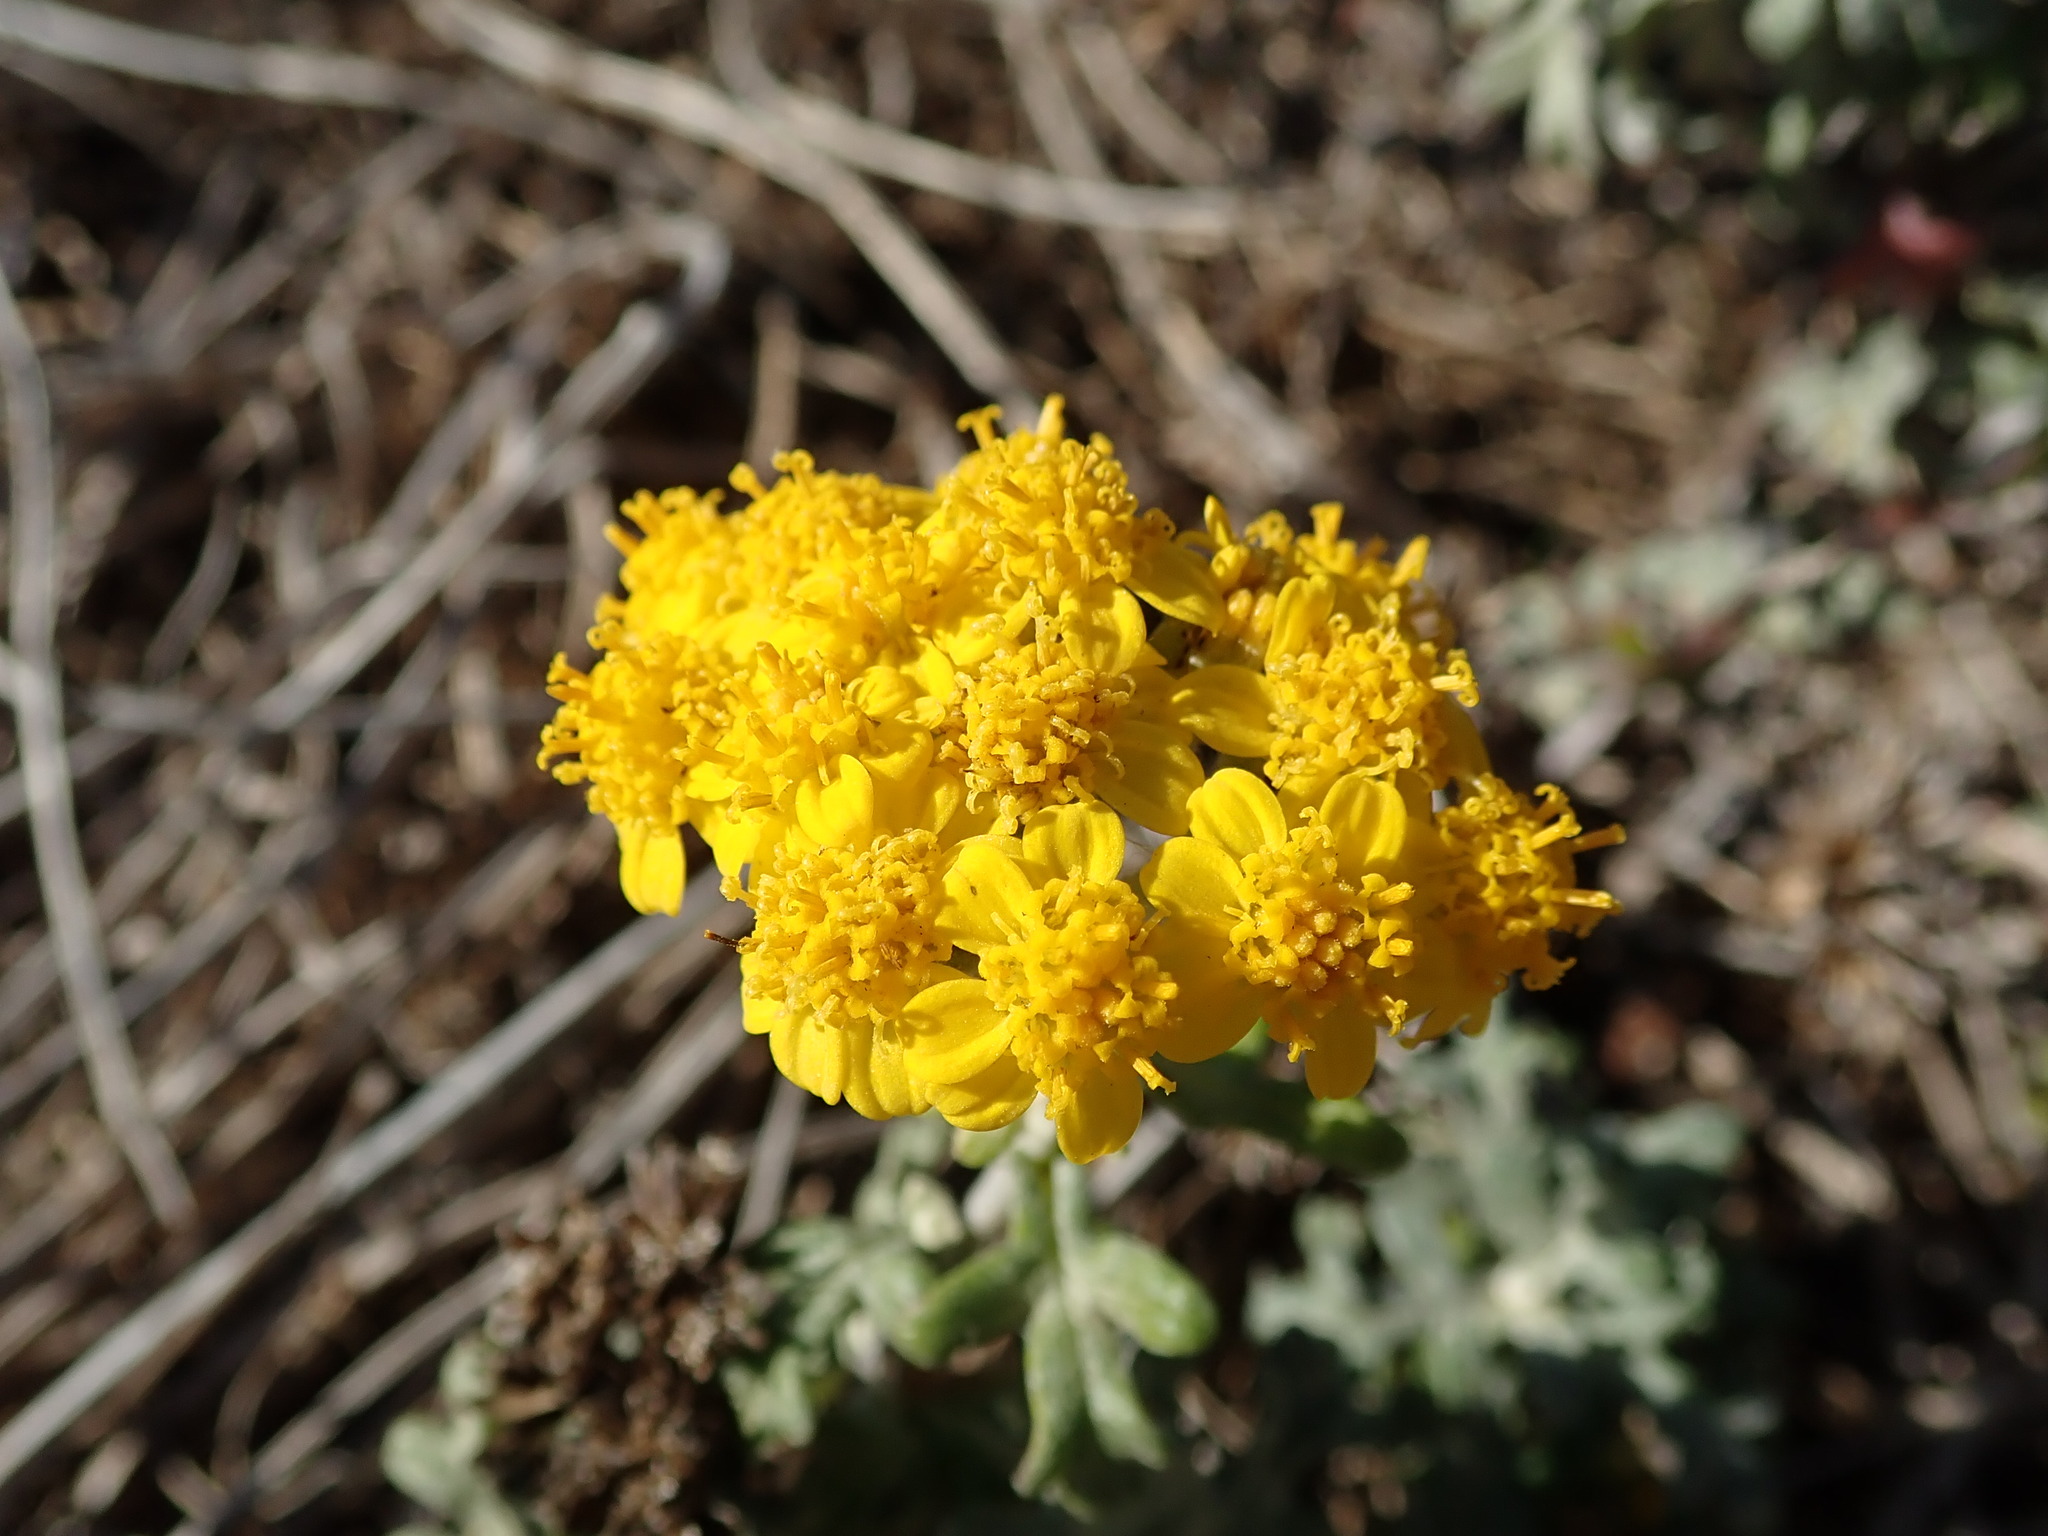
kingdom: Plantae
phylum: Tracheophyta
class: Magnoliopsida
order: Asterales
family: Asteraceae
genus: Eriophyllum
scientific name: Eriophyllum staechadifolium
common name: Lizardtail
